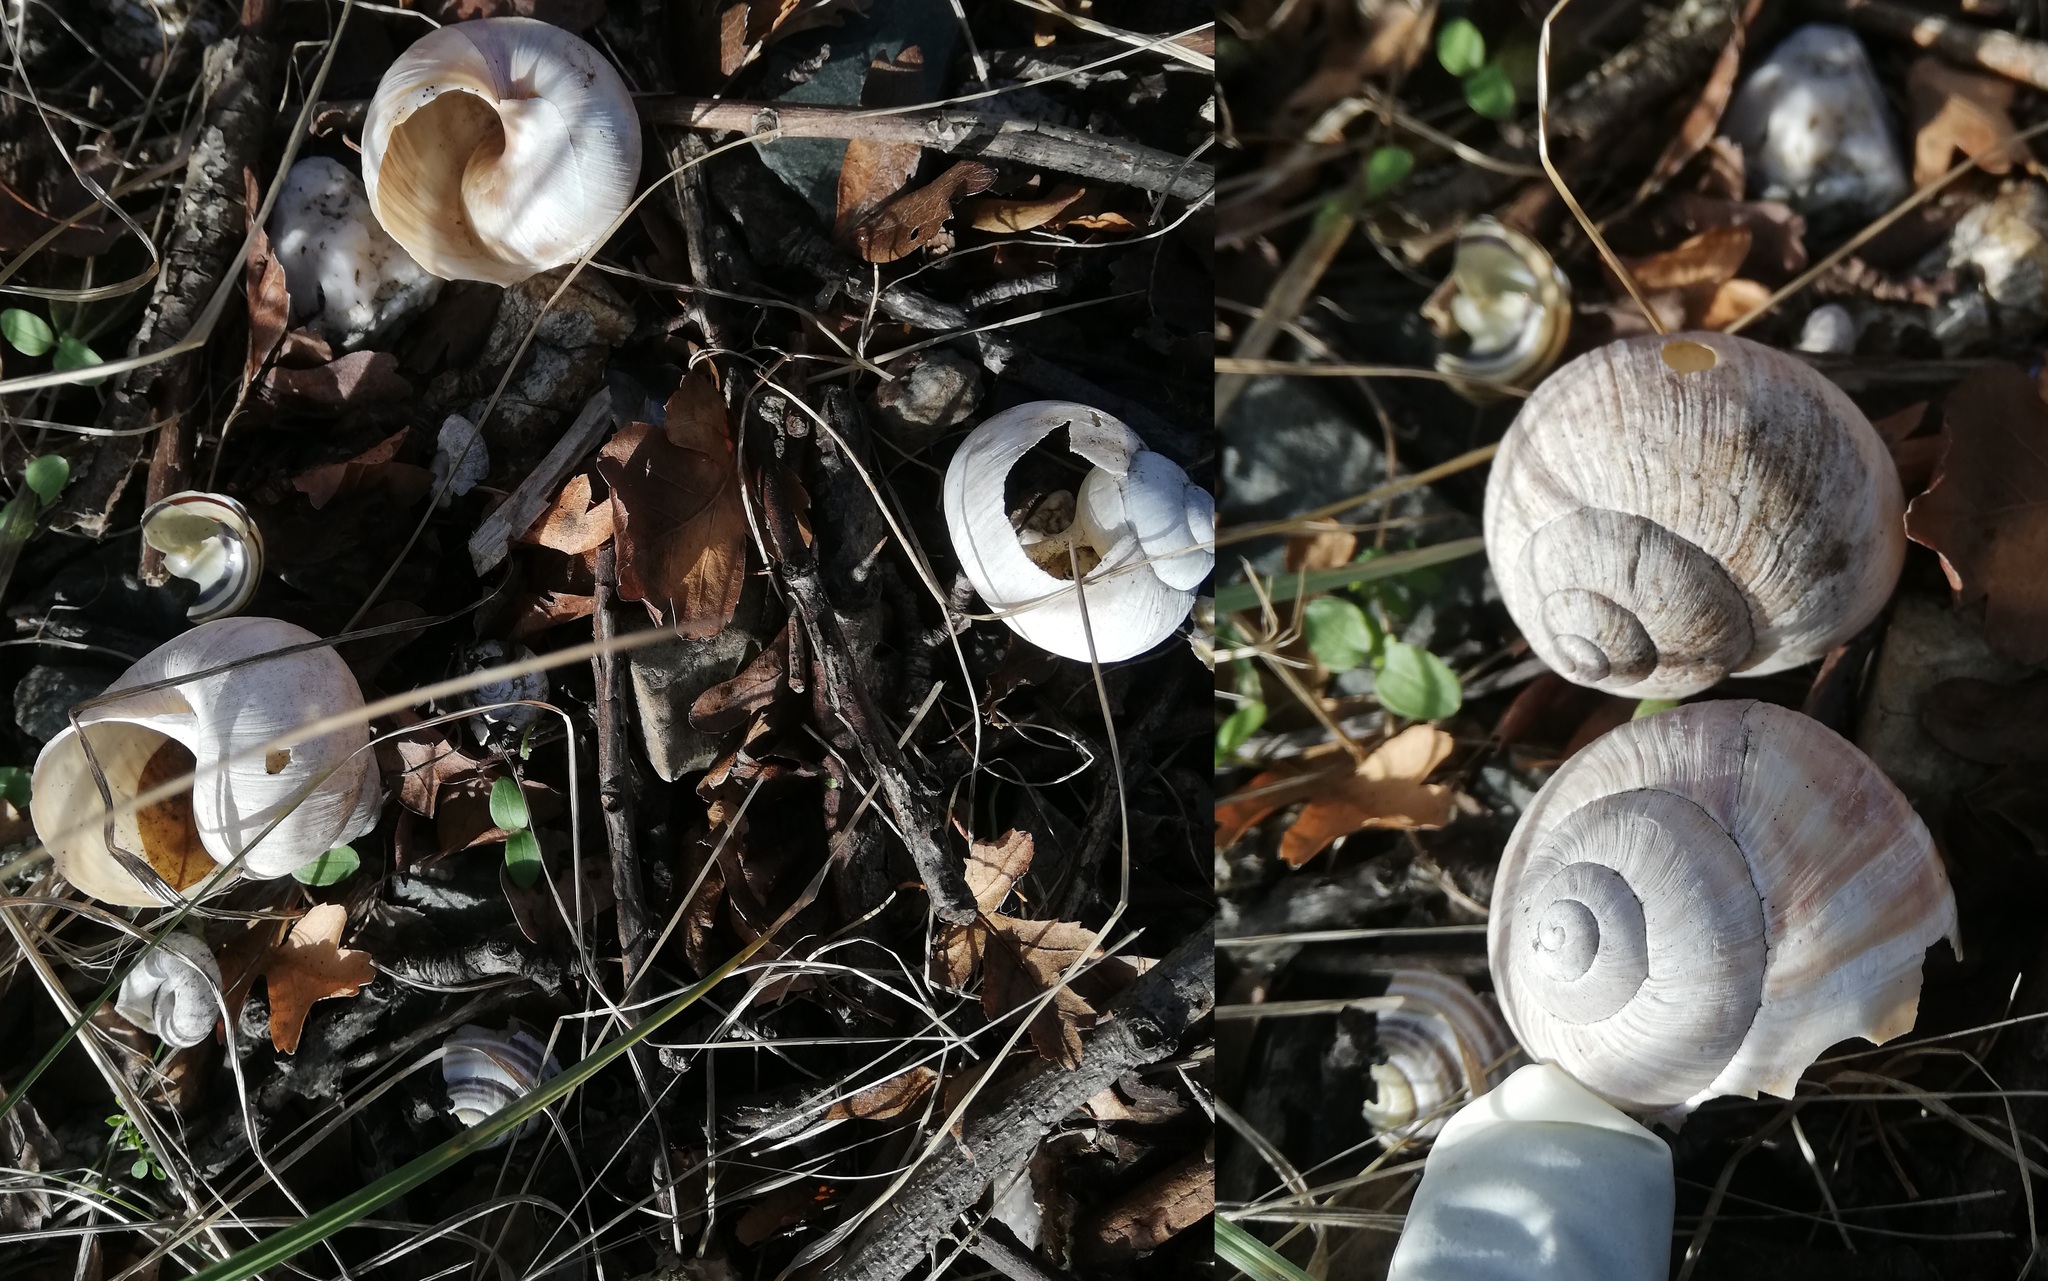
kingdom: Animalia
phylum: Mollusca
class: Gastropoda
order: Stylommatophora
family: Helicidae
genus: Helix
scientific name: Helix pomatia
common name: Roman snail
